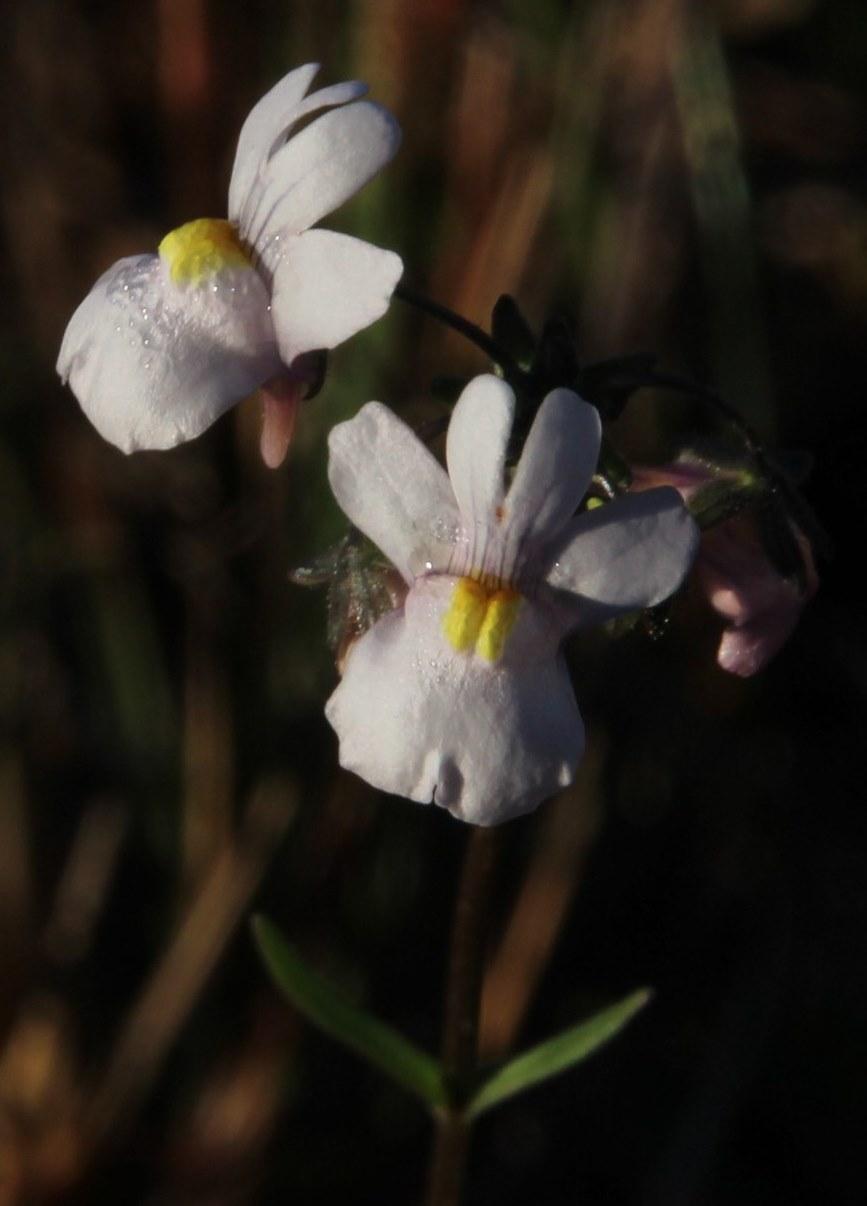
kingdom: Plantae
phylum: Tracheophyta
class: Magnoliopsida
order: Lamiales
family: Scrophulariaceae
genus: Nemesia
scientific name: Nemesia fruticans
